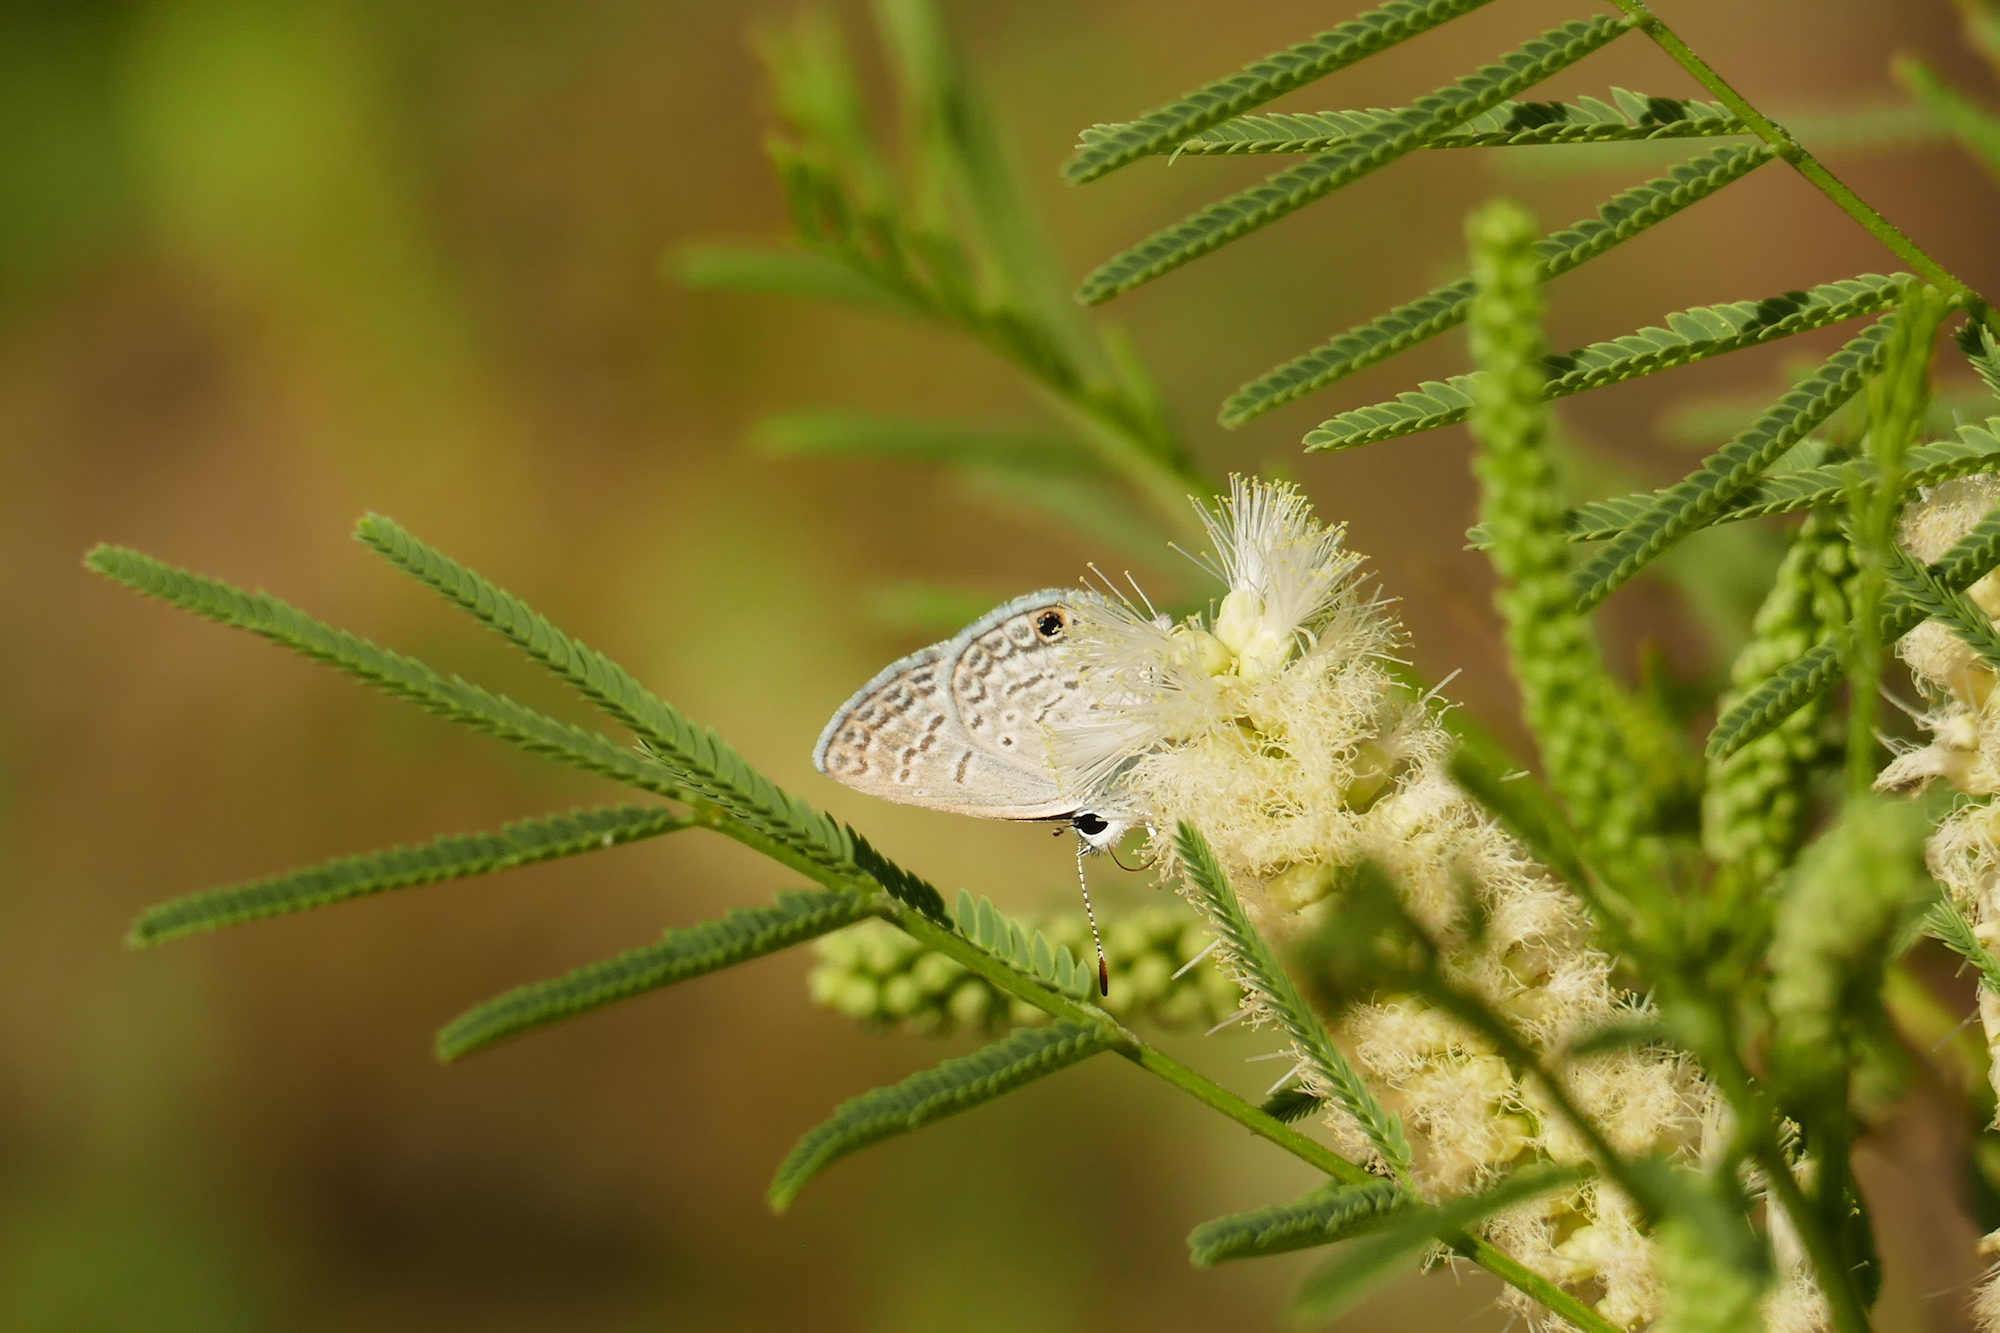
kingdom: Animalia
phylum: Arthropoda
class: Insecta
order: Lepidoptera
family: Lycaenidae
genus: Hemiargus
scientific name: Hemiargus ceraunus
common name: Ceraunus blue
